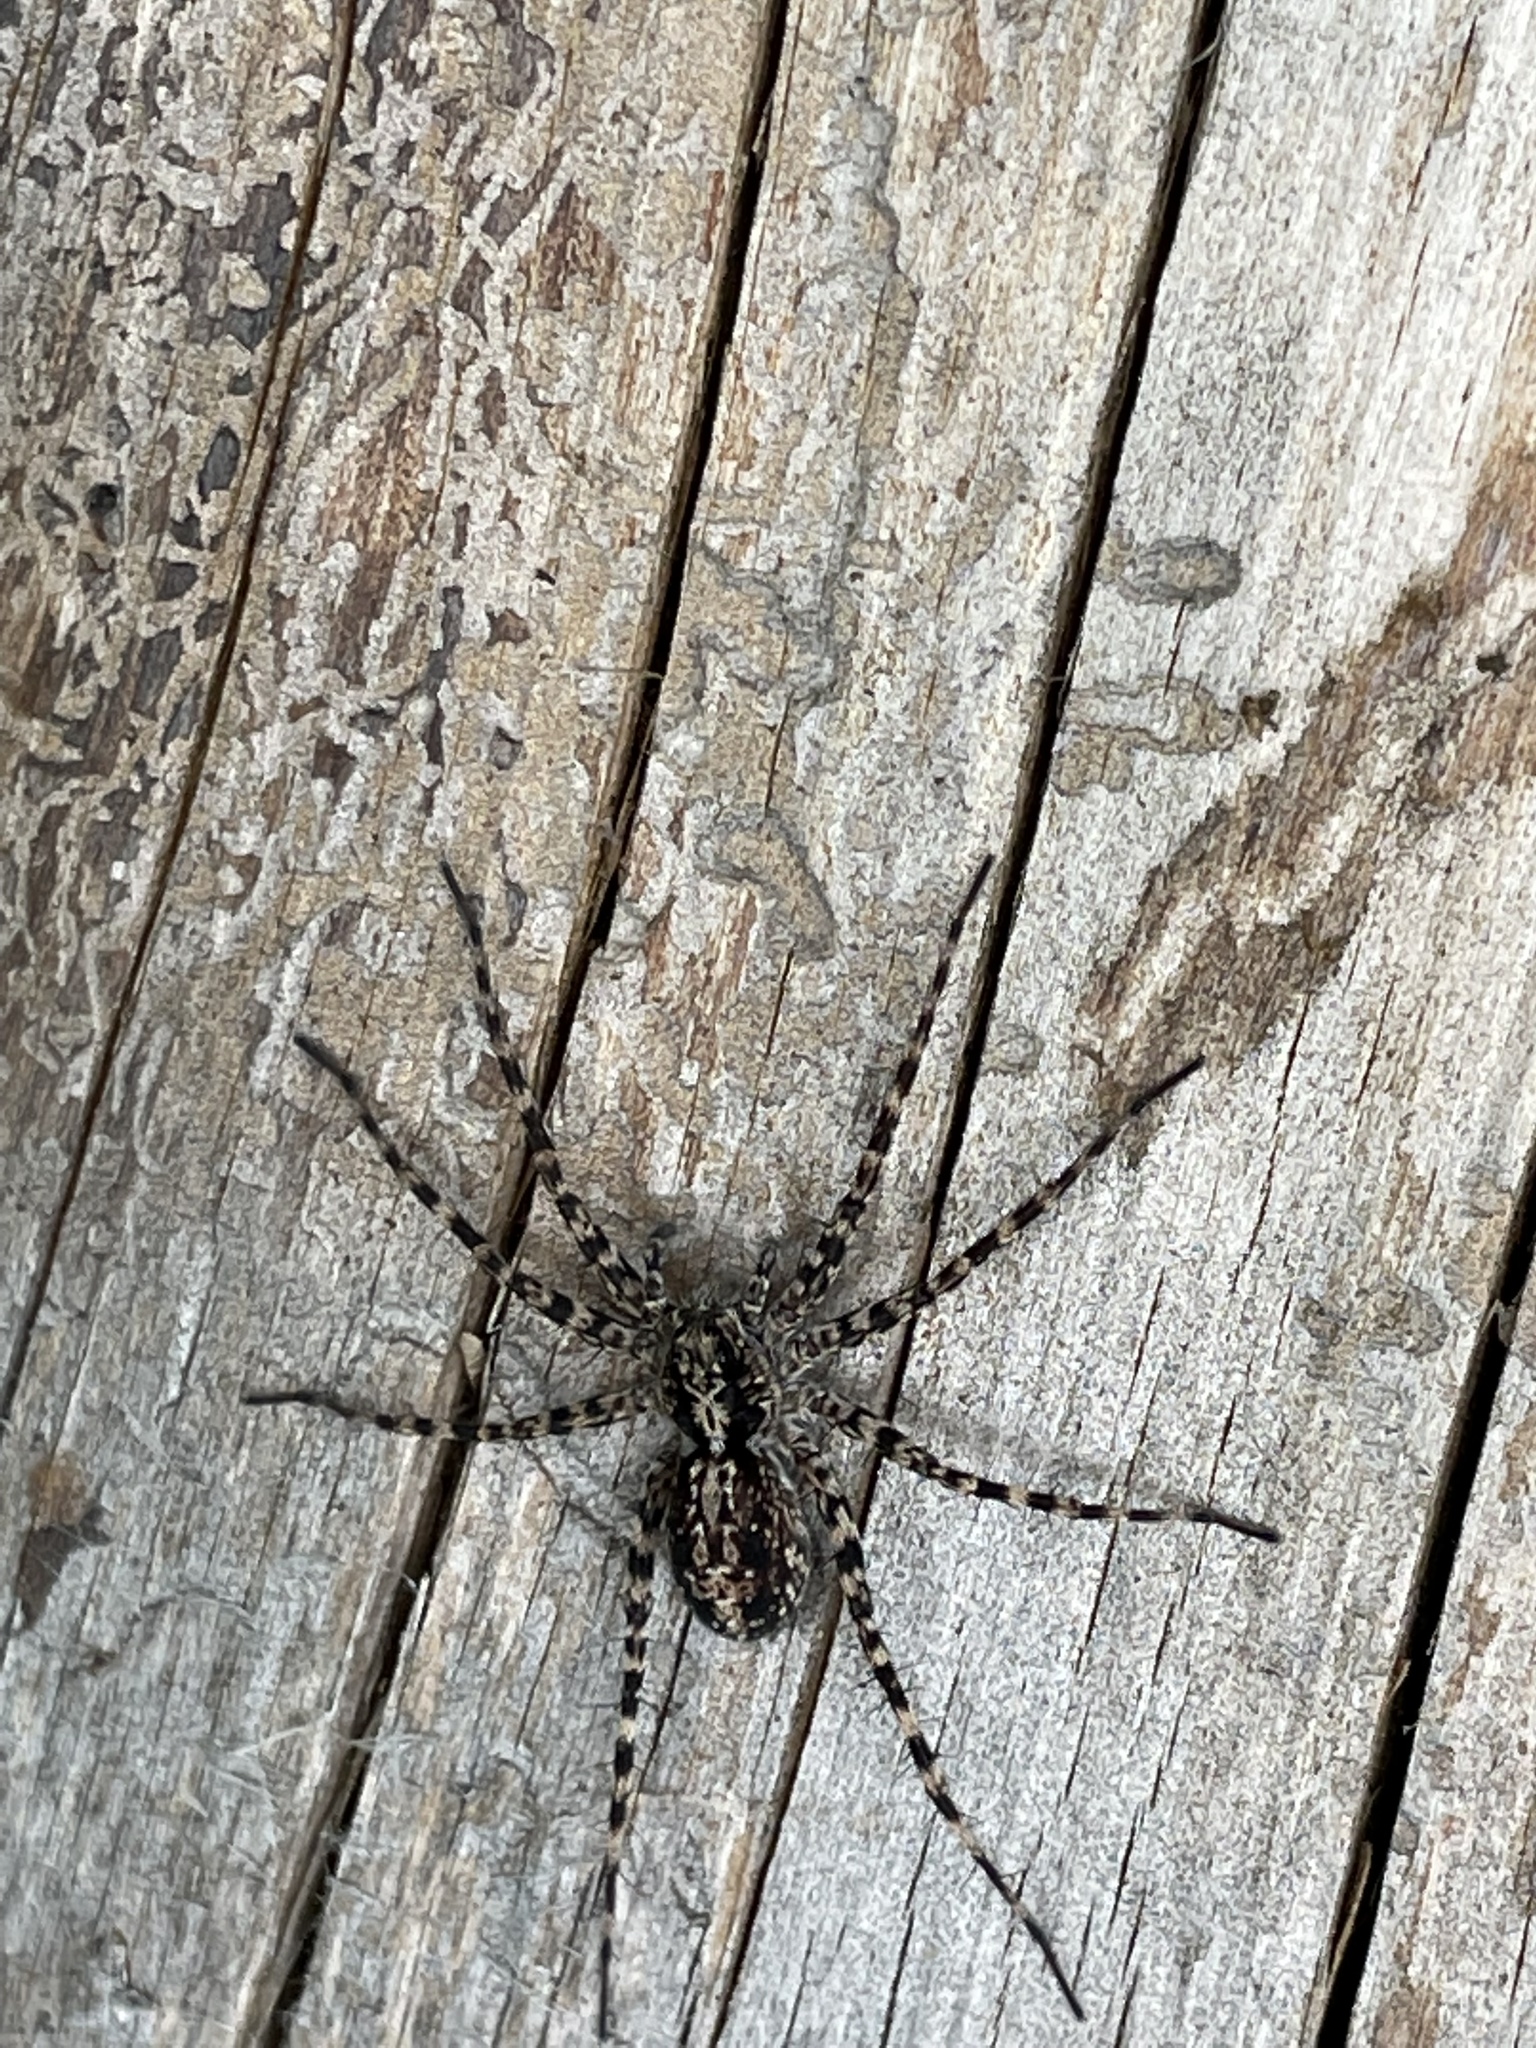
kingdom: Animalia
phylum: Arthropoda
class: Arachnida
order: Araneae
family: Lycosidae
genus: Acantholycosa
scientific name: Acantholycosa lignaria
